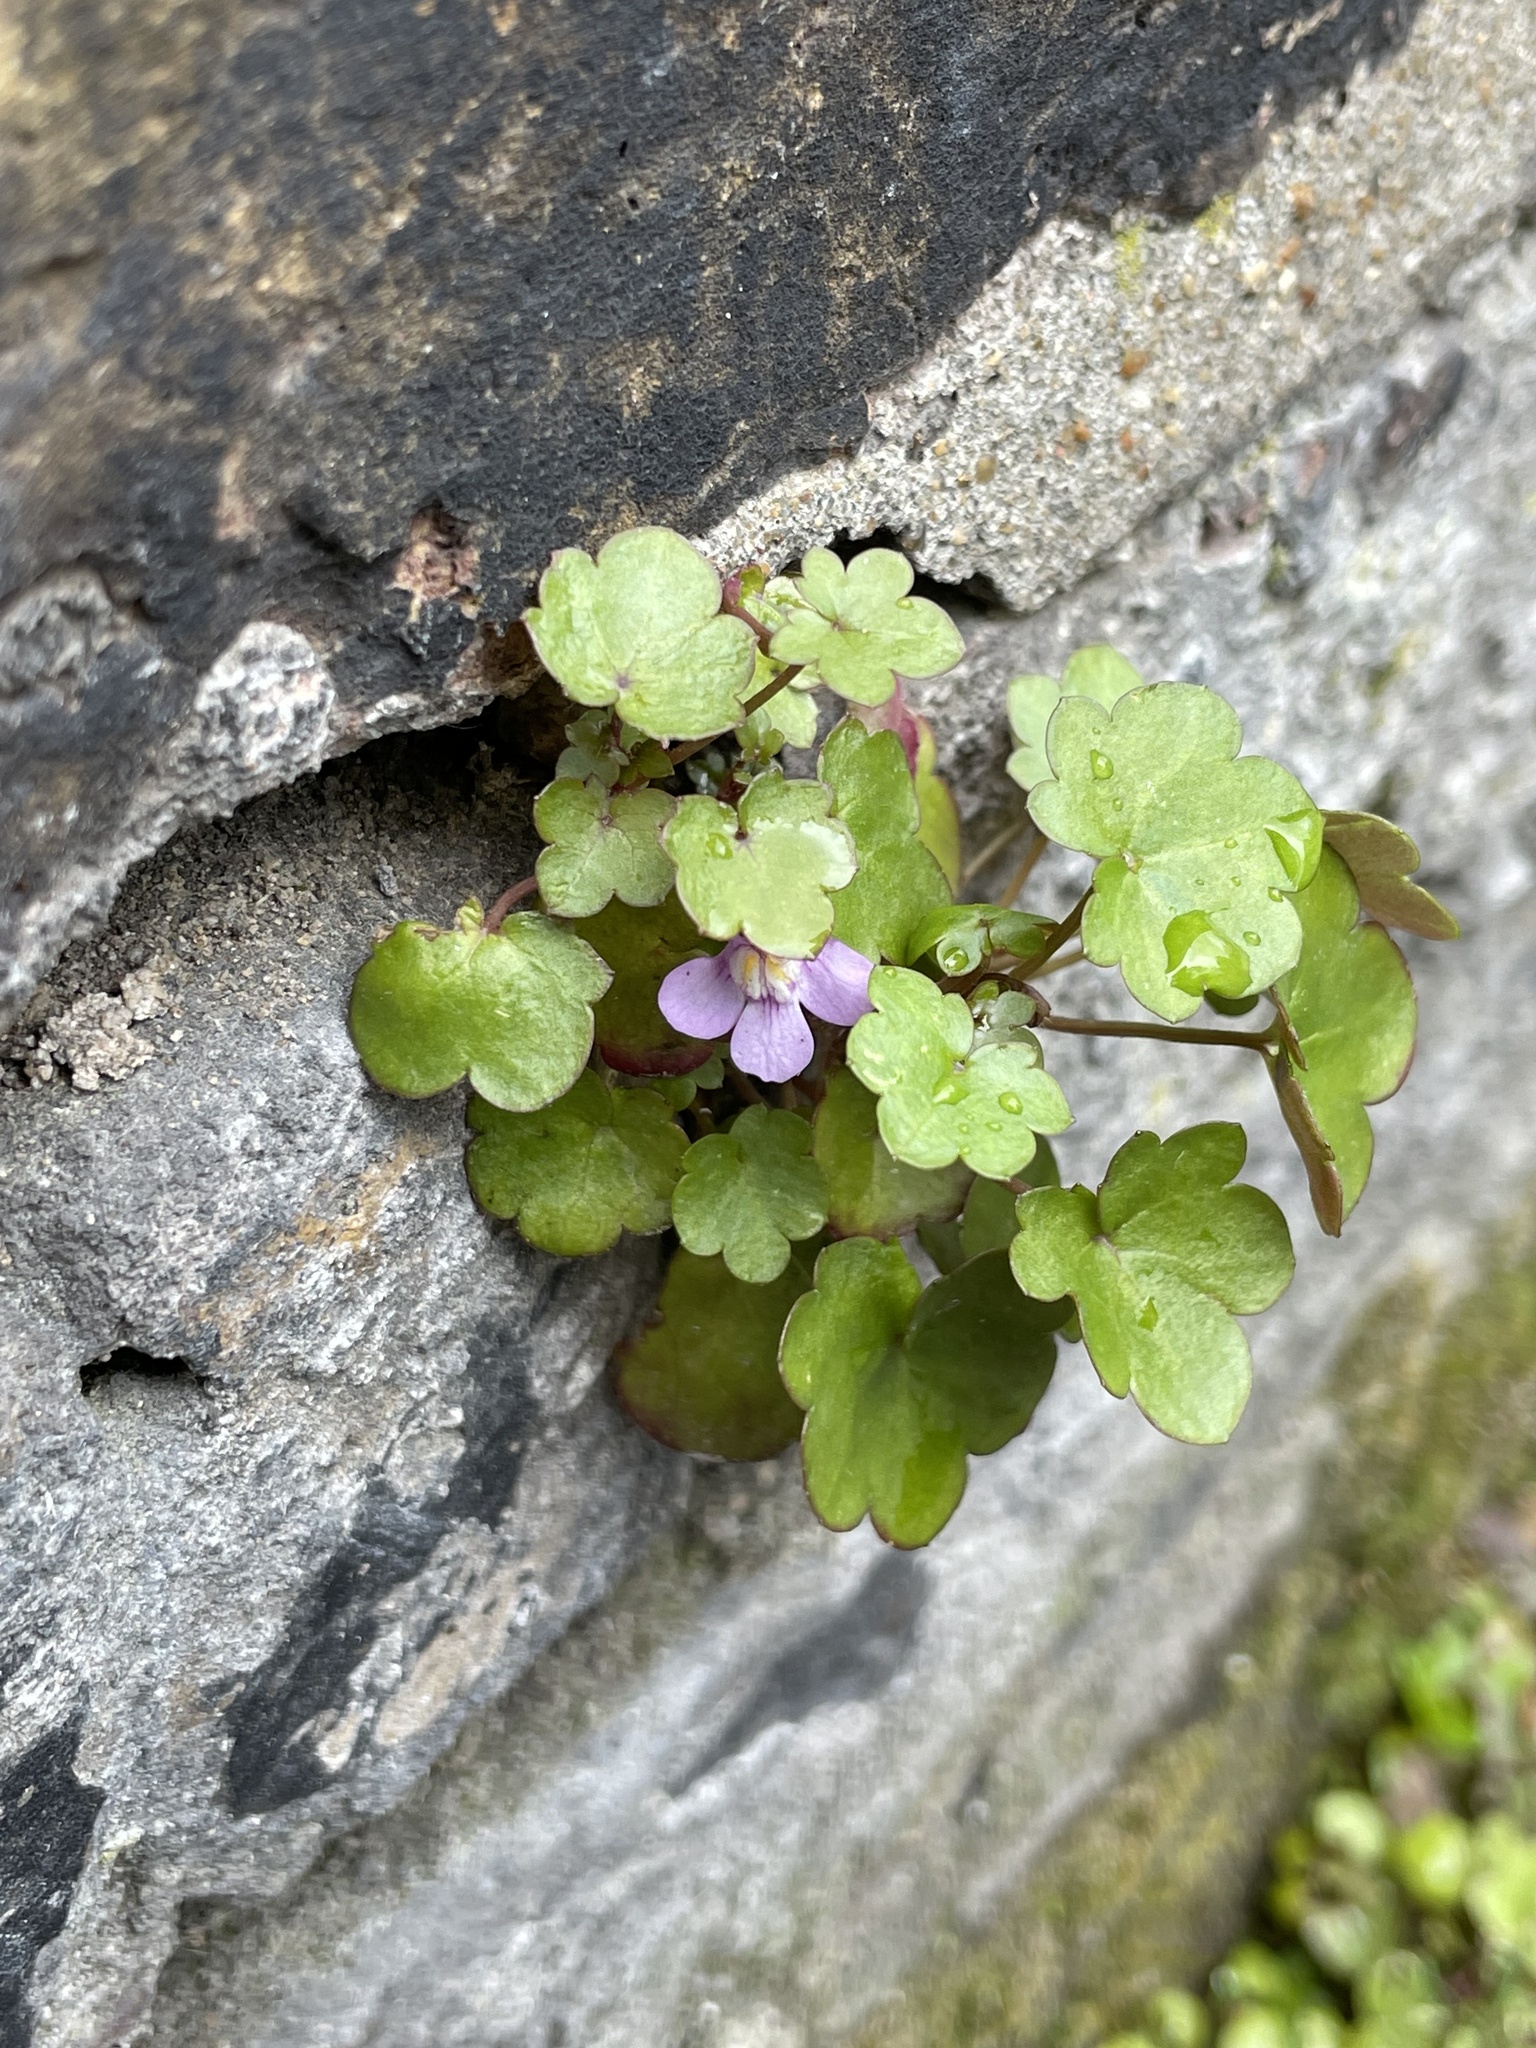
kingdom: Plantae
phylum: Tracheophyta
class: Magnoliopsida
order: Lamiales
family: Plantaginaceae
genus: Cymbalaria
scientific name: Cymbalaria muralis
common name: Ivy-leaved toadflax
